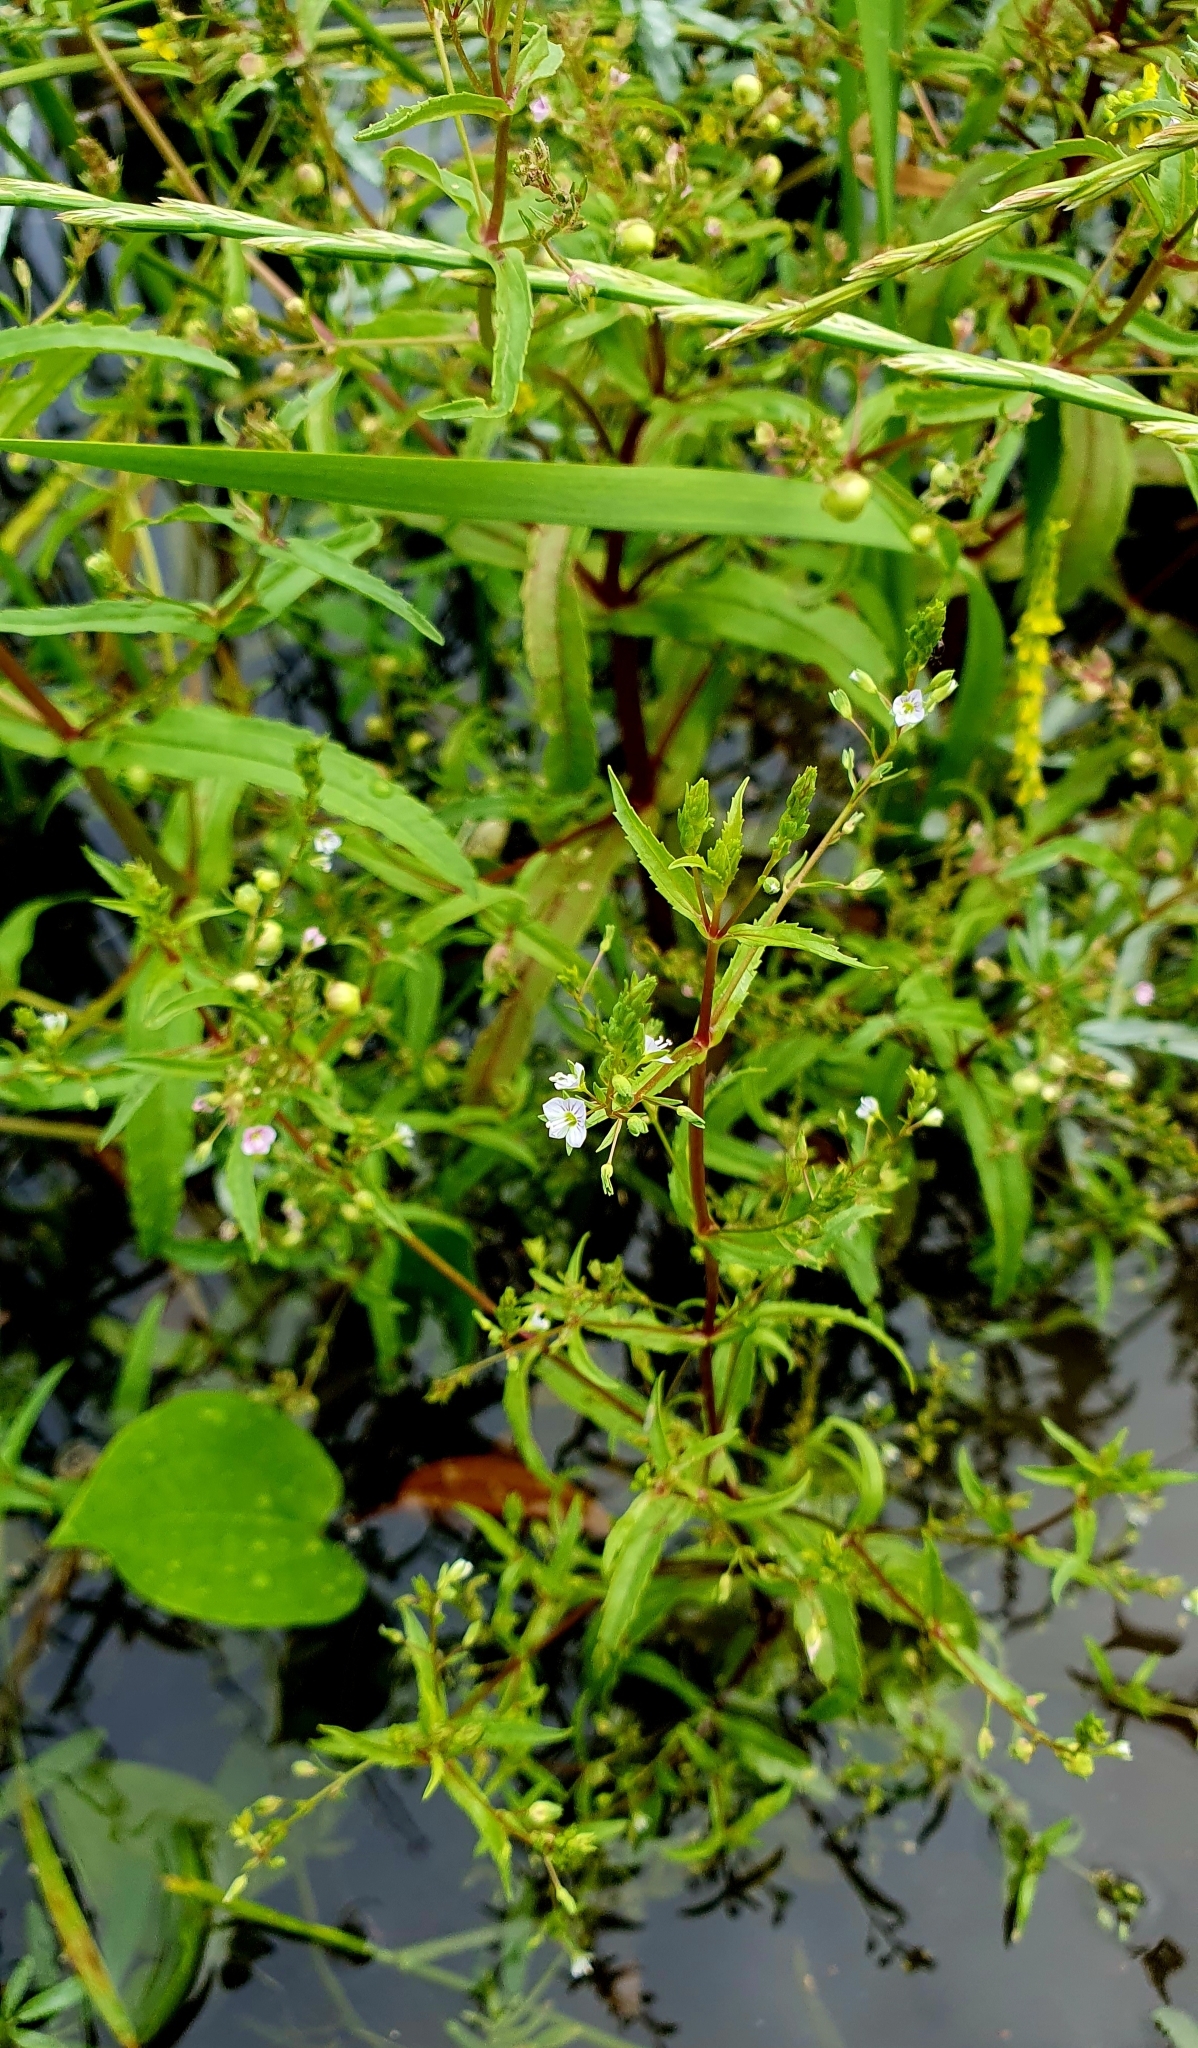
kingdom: Plantae
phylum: Tracheophyta
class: Magnoliopsida
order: Lamiales
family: Plantaginaceae
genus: Veronica
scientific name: Veronica catenata
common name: Pink water-speedwell
